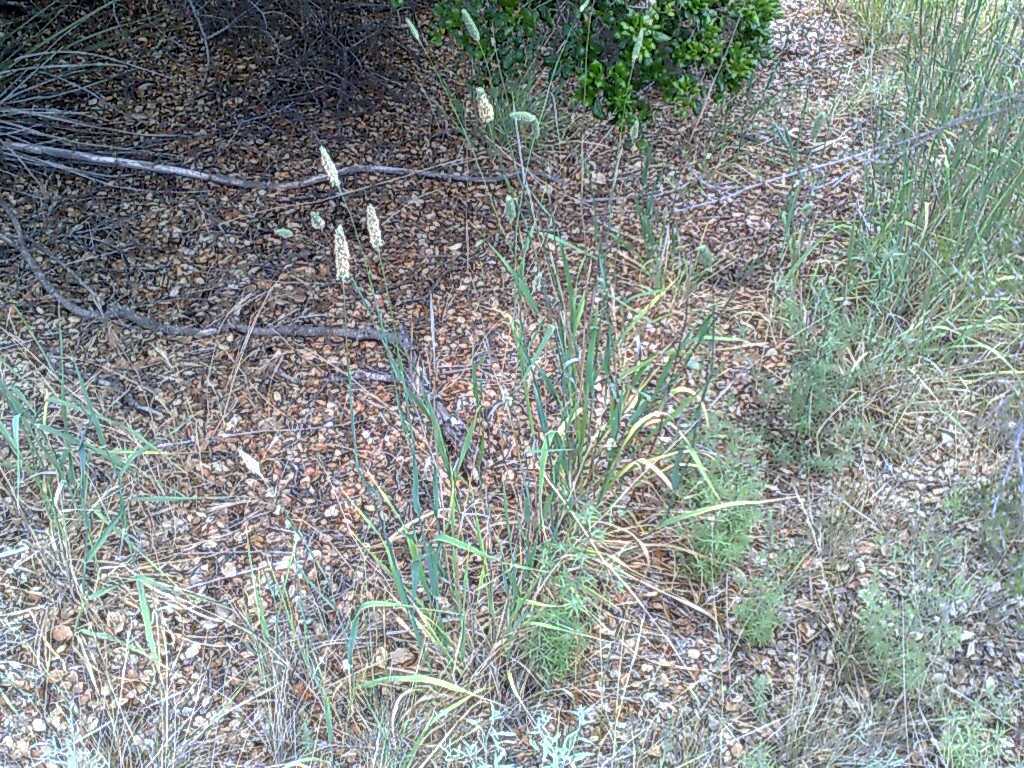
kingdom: Plantae
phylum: Tracheophyta
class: Liliopsida
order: Poales
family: Poaceae
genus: Phalaris
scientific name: Phalaris aquatica
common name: Bulbous canary-grass
